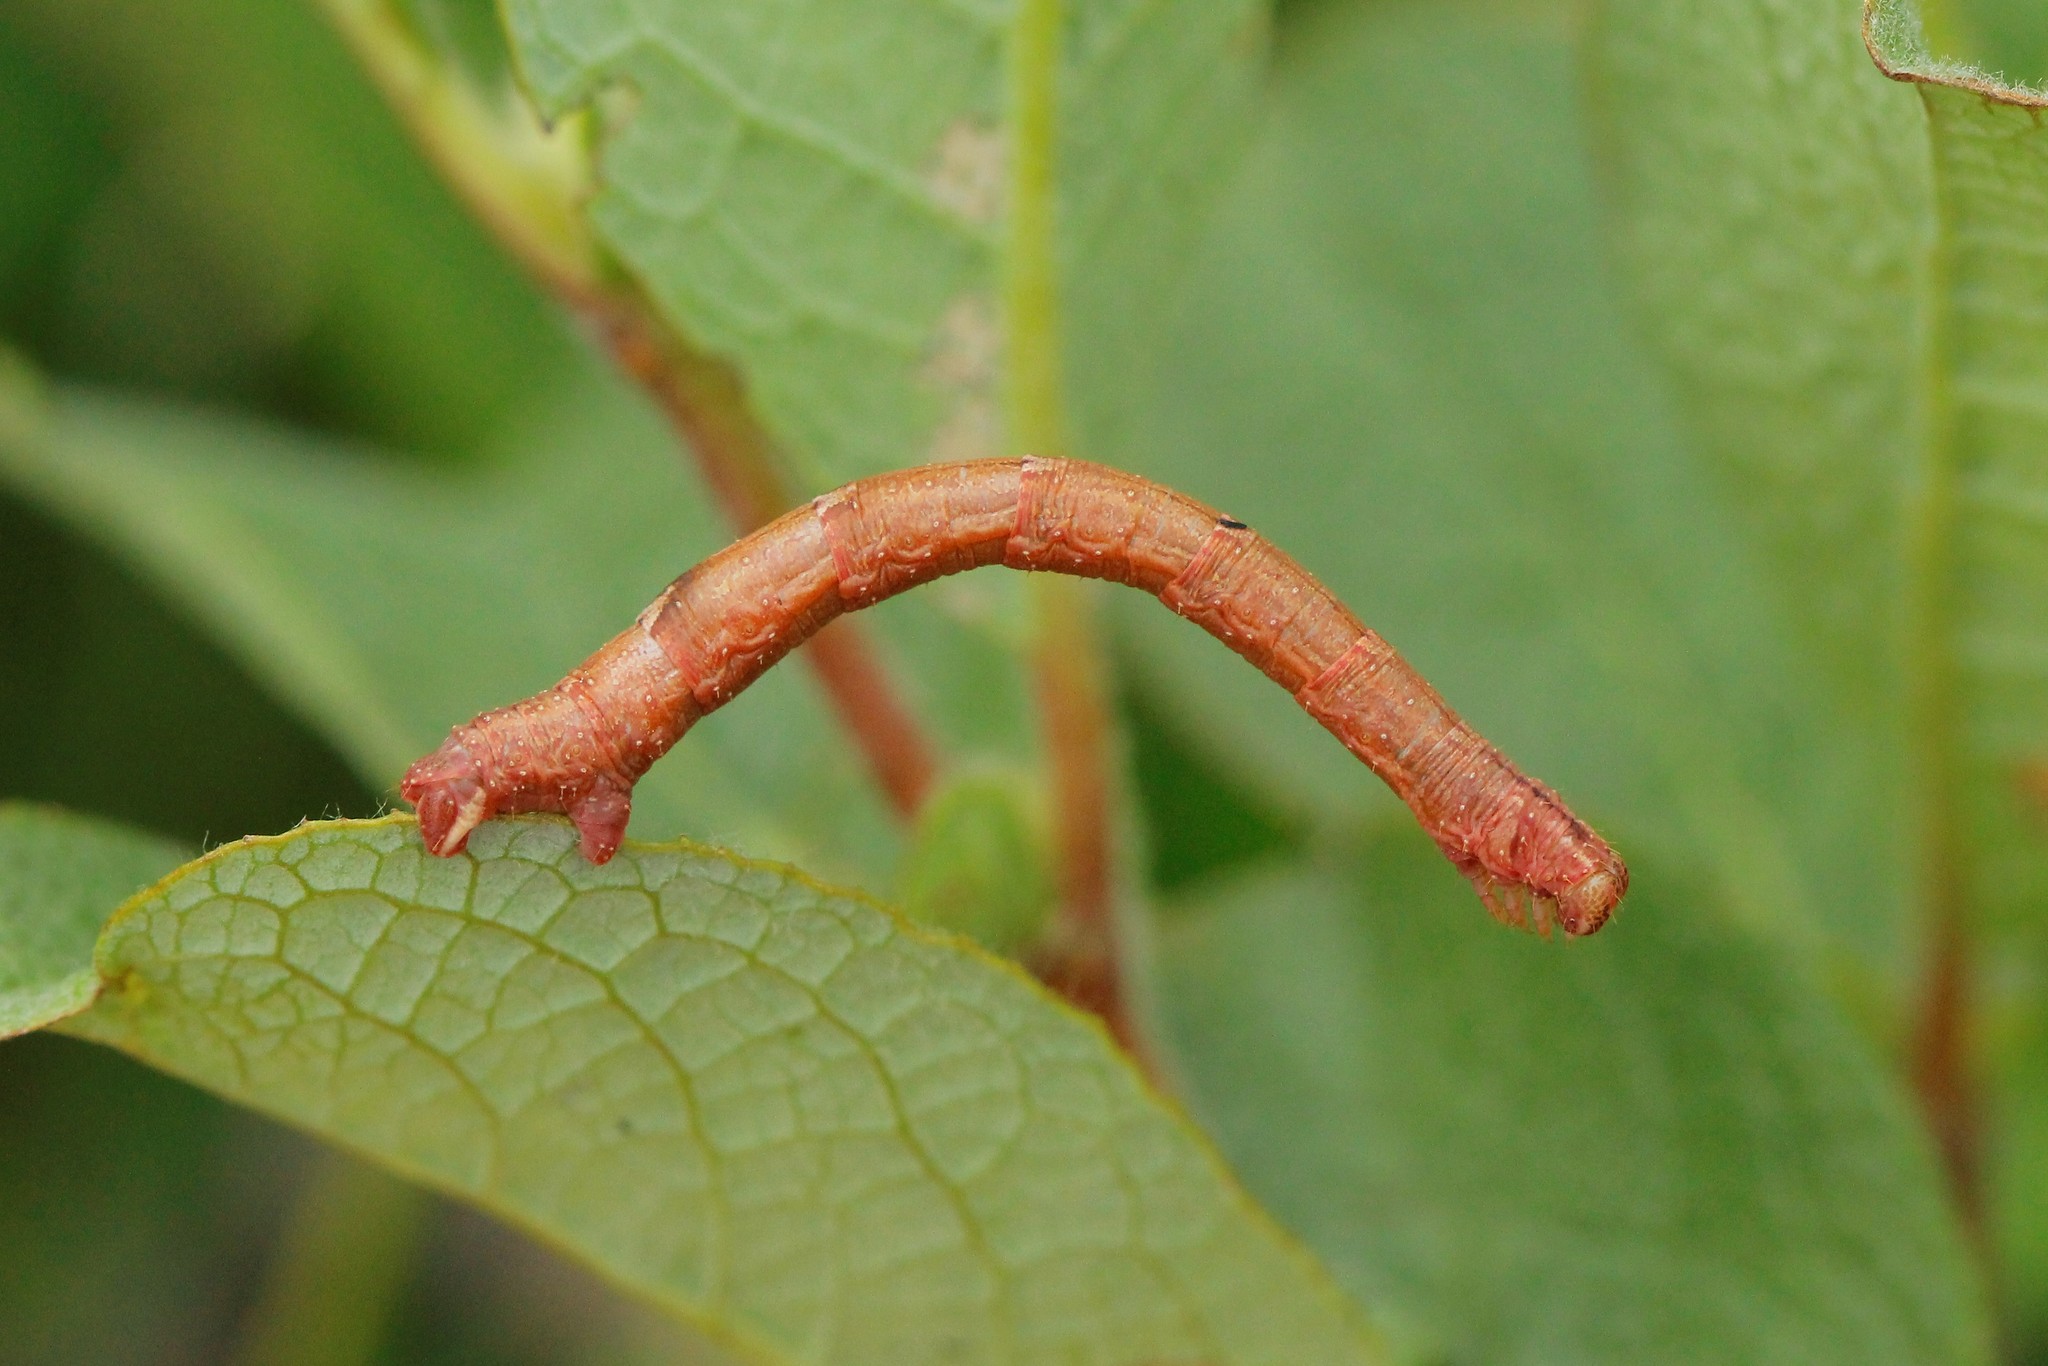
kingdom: Animalia
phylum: Arthropoda
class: Insecta
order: Lepidoptera
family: Geometridae
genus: Eulithis
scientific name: Eulithis populata
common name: Northern spinach
